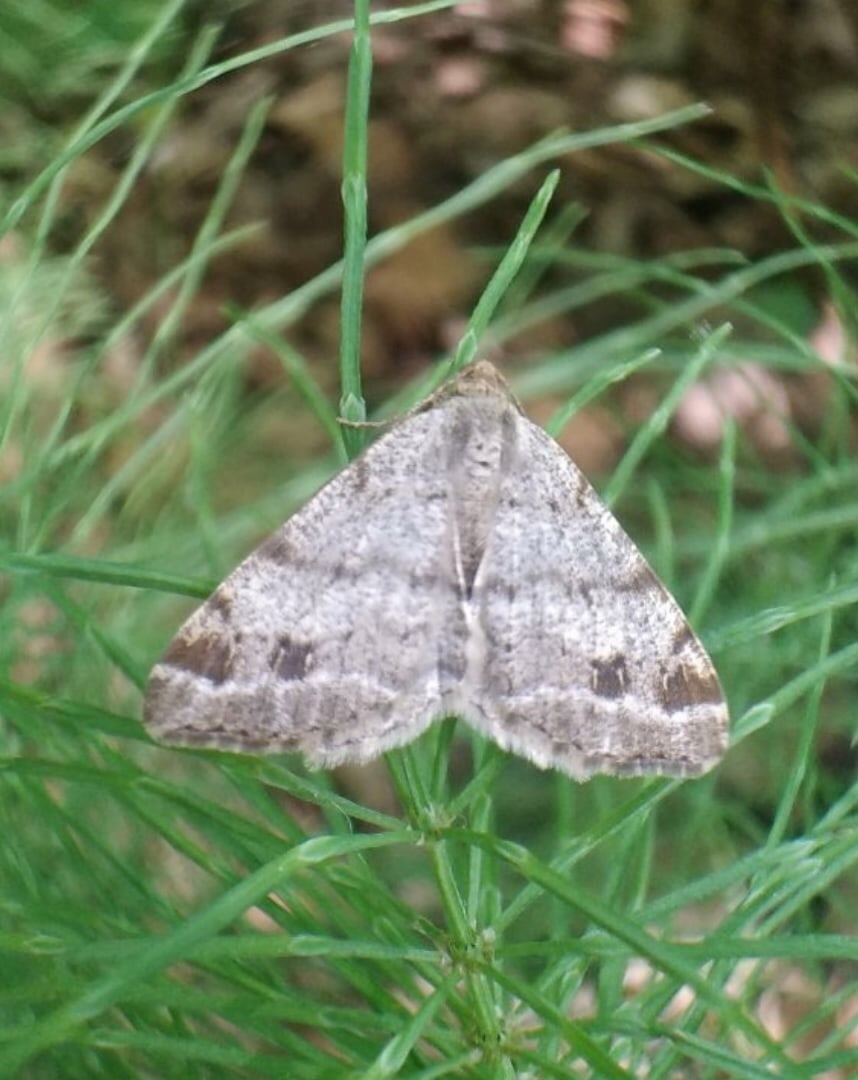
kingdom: Animalia
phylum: Arthropoda
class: Insecta
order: Lepidoptera
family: Geometridae
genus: Macaria
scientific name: Macaria signaria
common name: Dusky peacock
